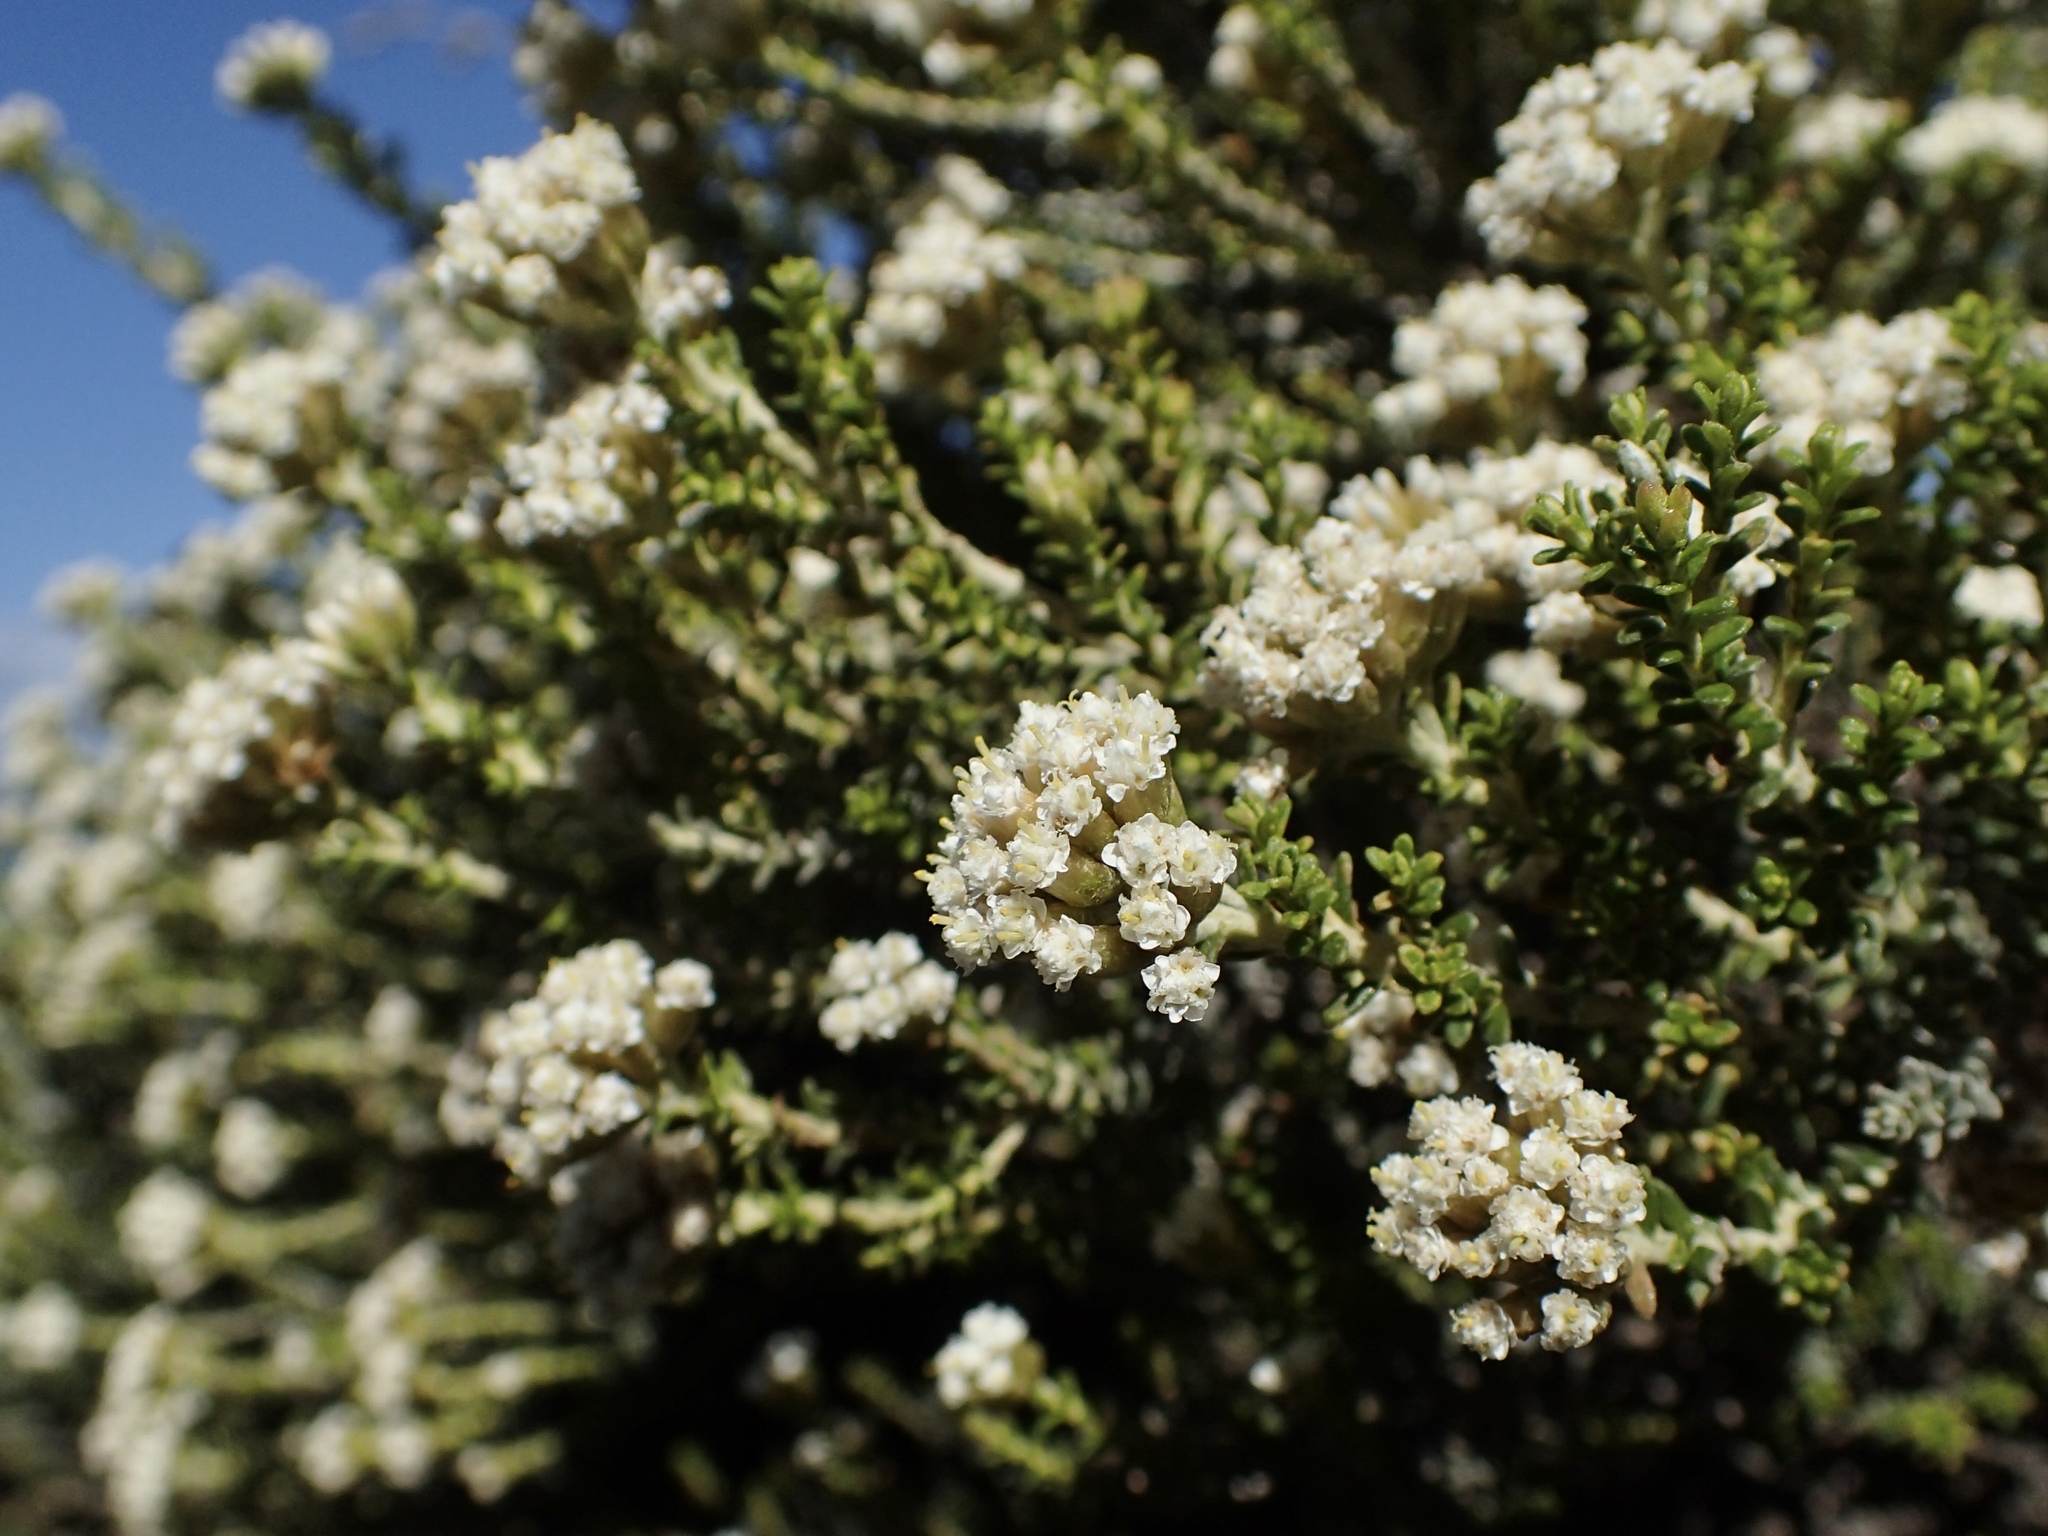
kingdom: Plantae
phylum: Tracheophyta
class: Magnoliopsida
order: Asterales
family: Asteraceae
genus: Ozothamnus
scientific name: Ozothamnus leptophyllus
